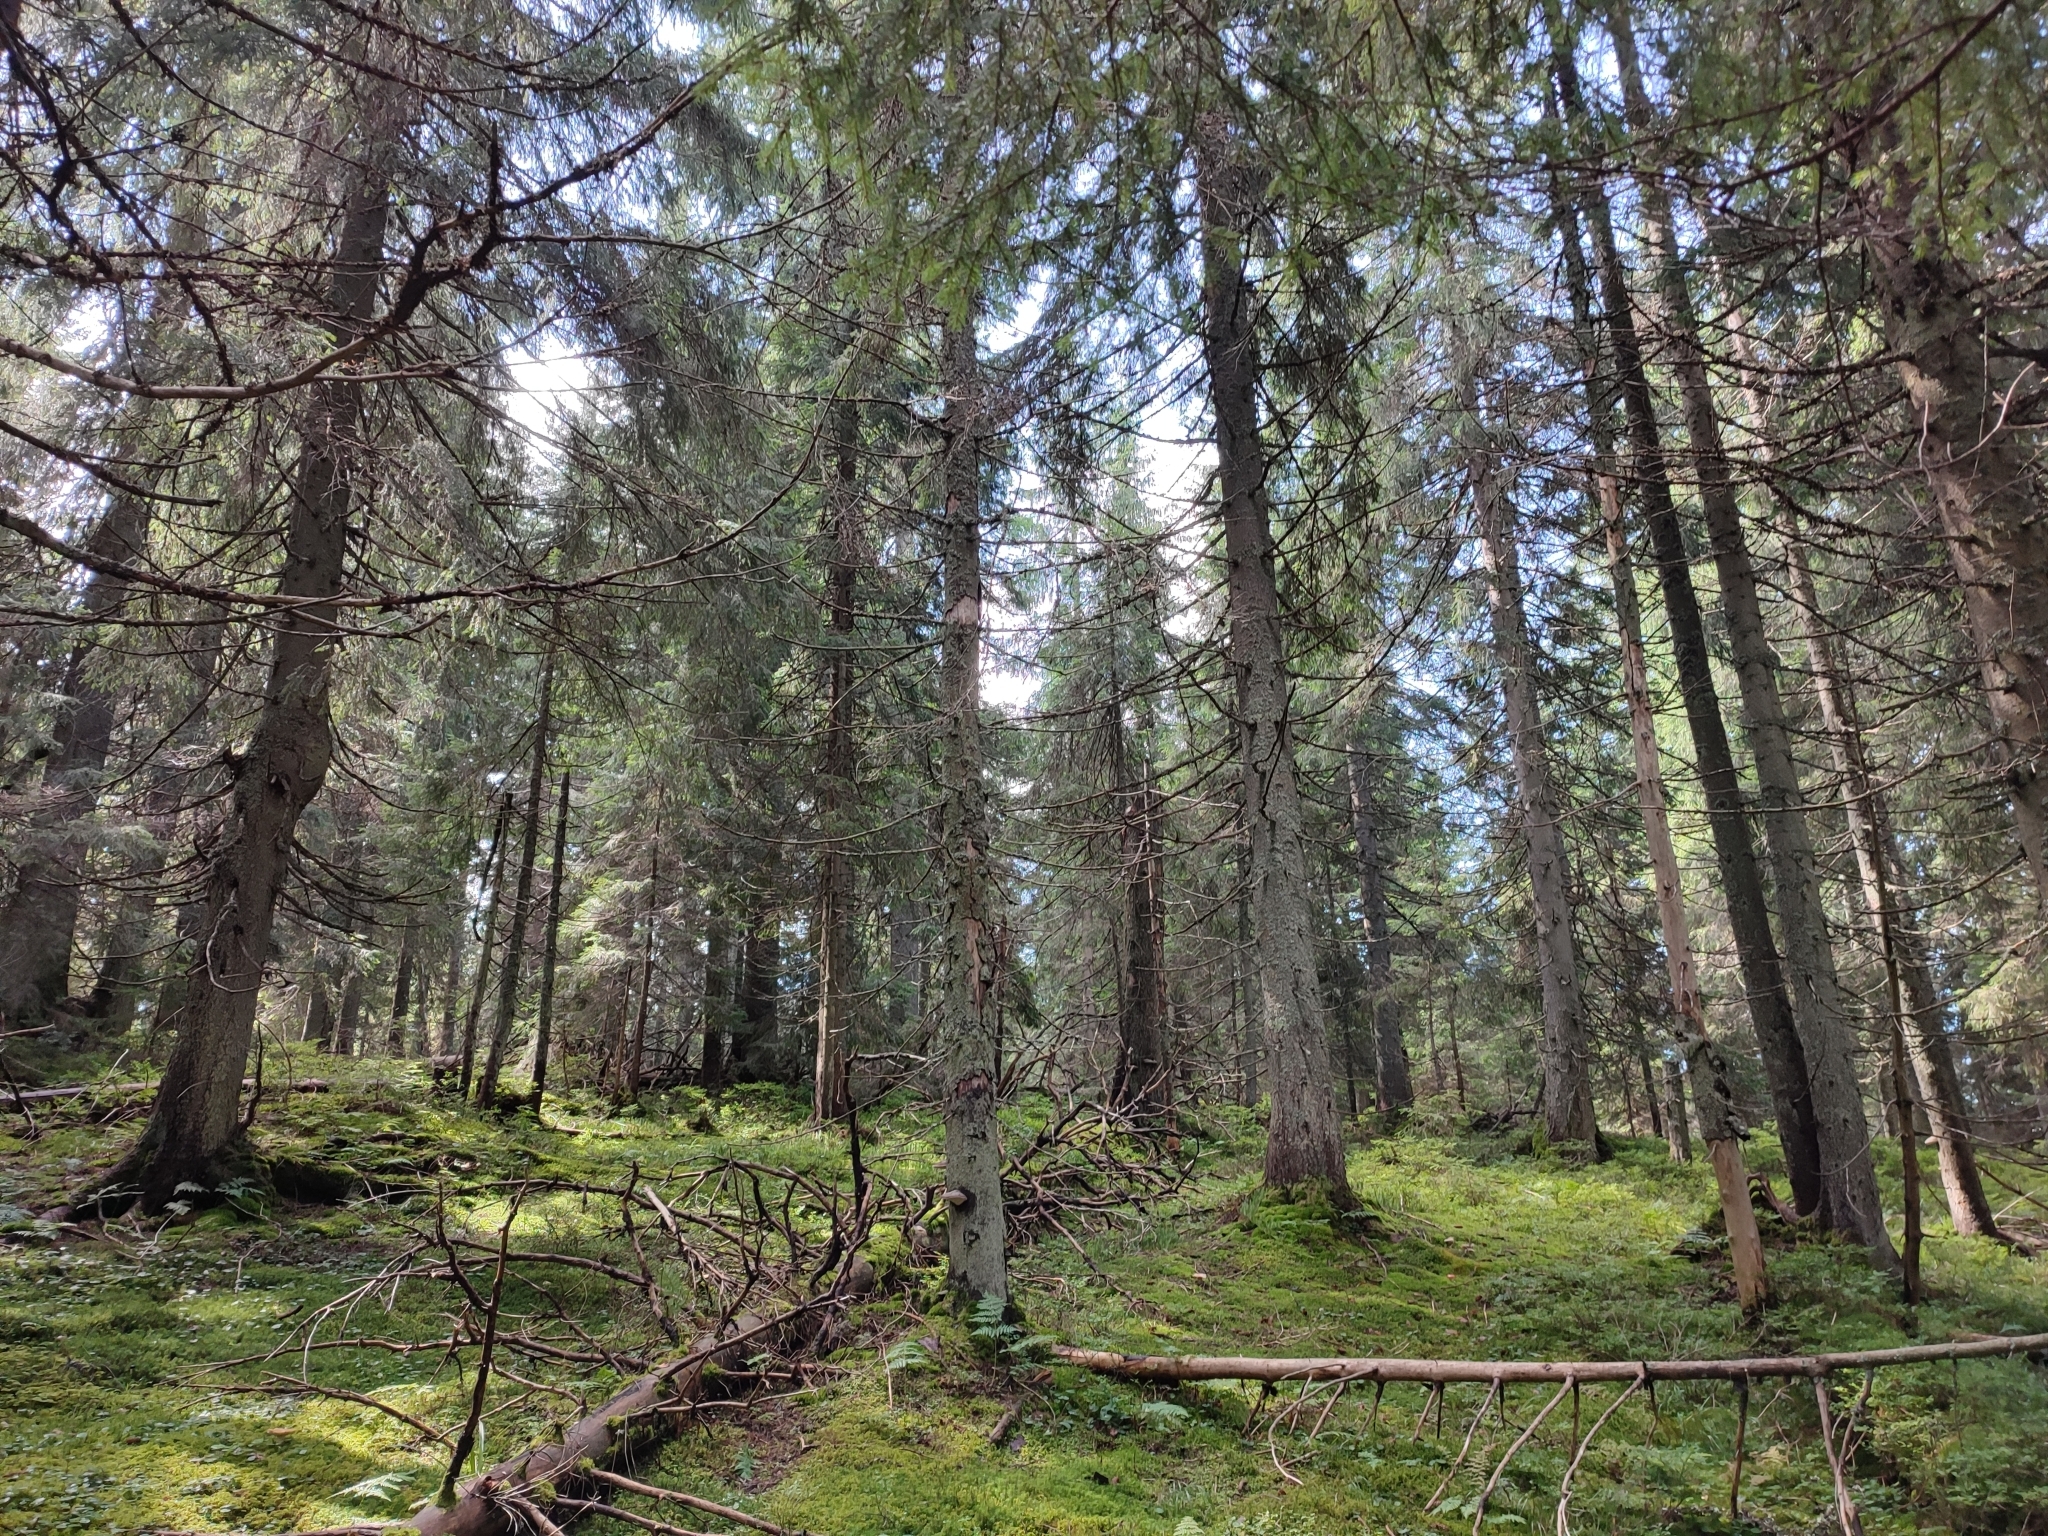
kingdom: Plantae
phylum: Tracheophyta
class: Pinopsida
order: Pinales
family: Pinaceae
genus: Picea
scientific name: Picea abies
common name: Norway spruce
